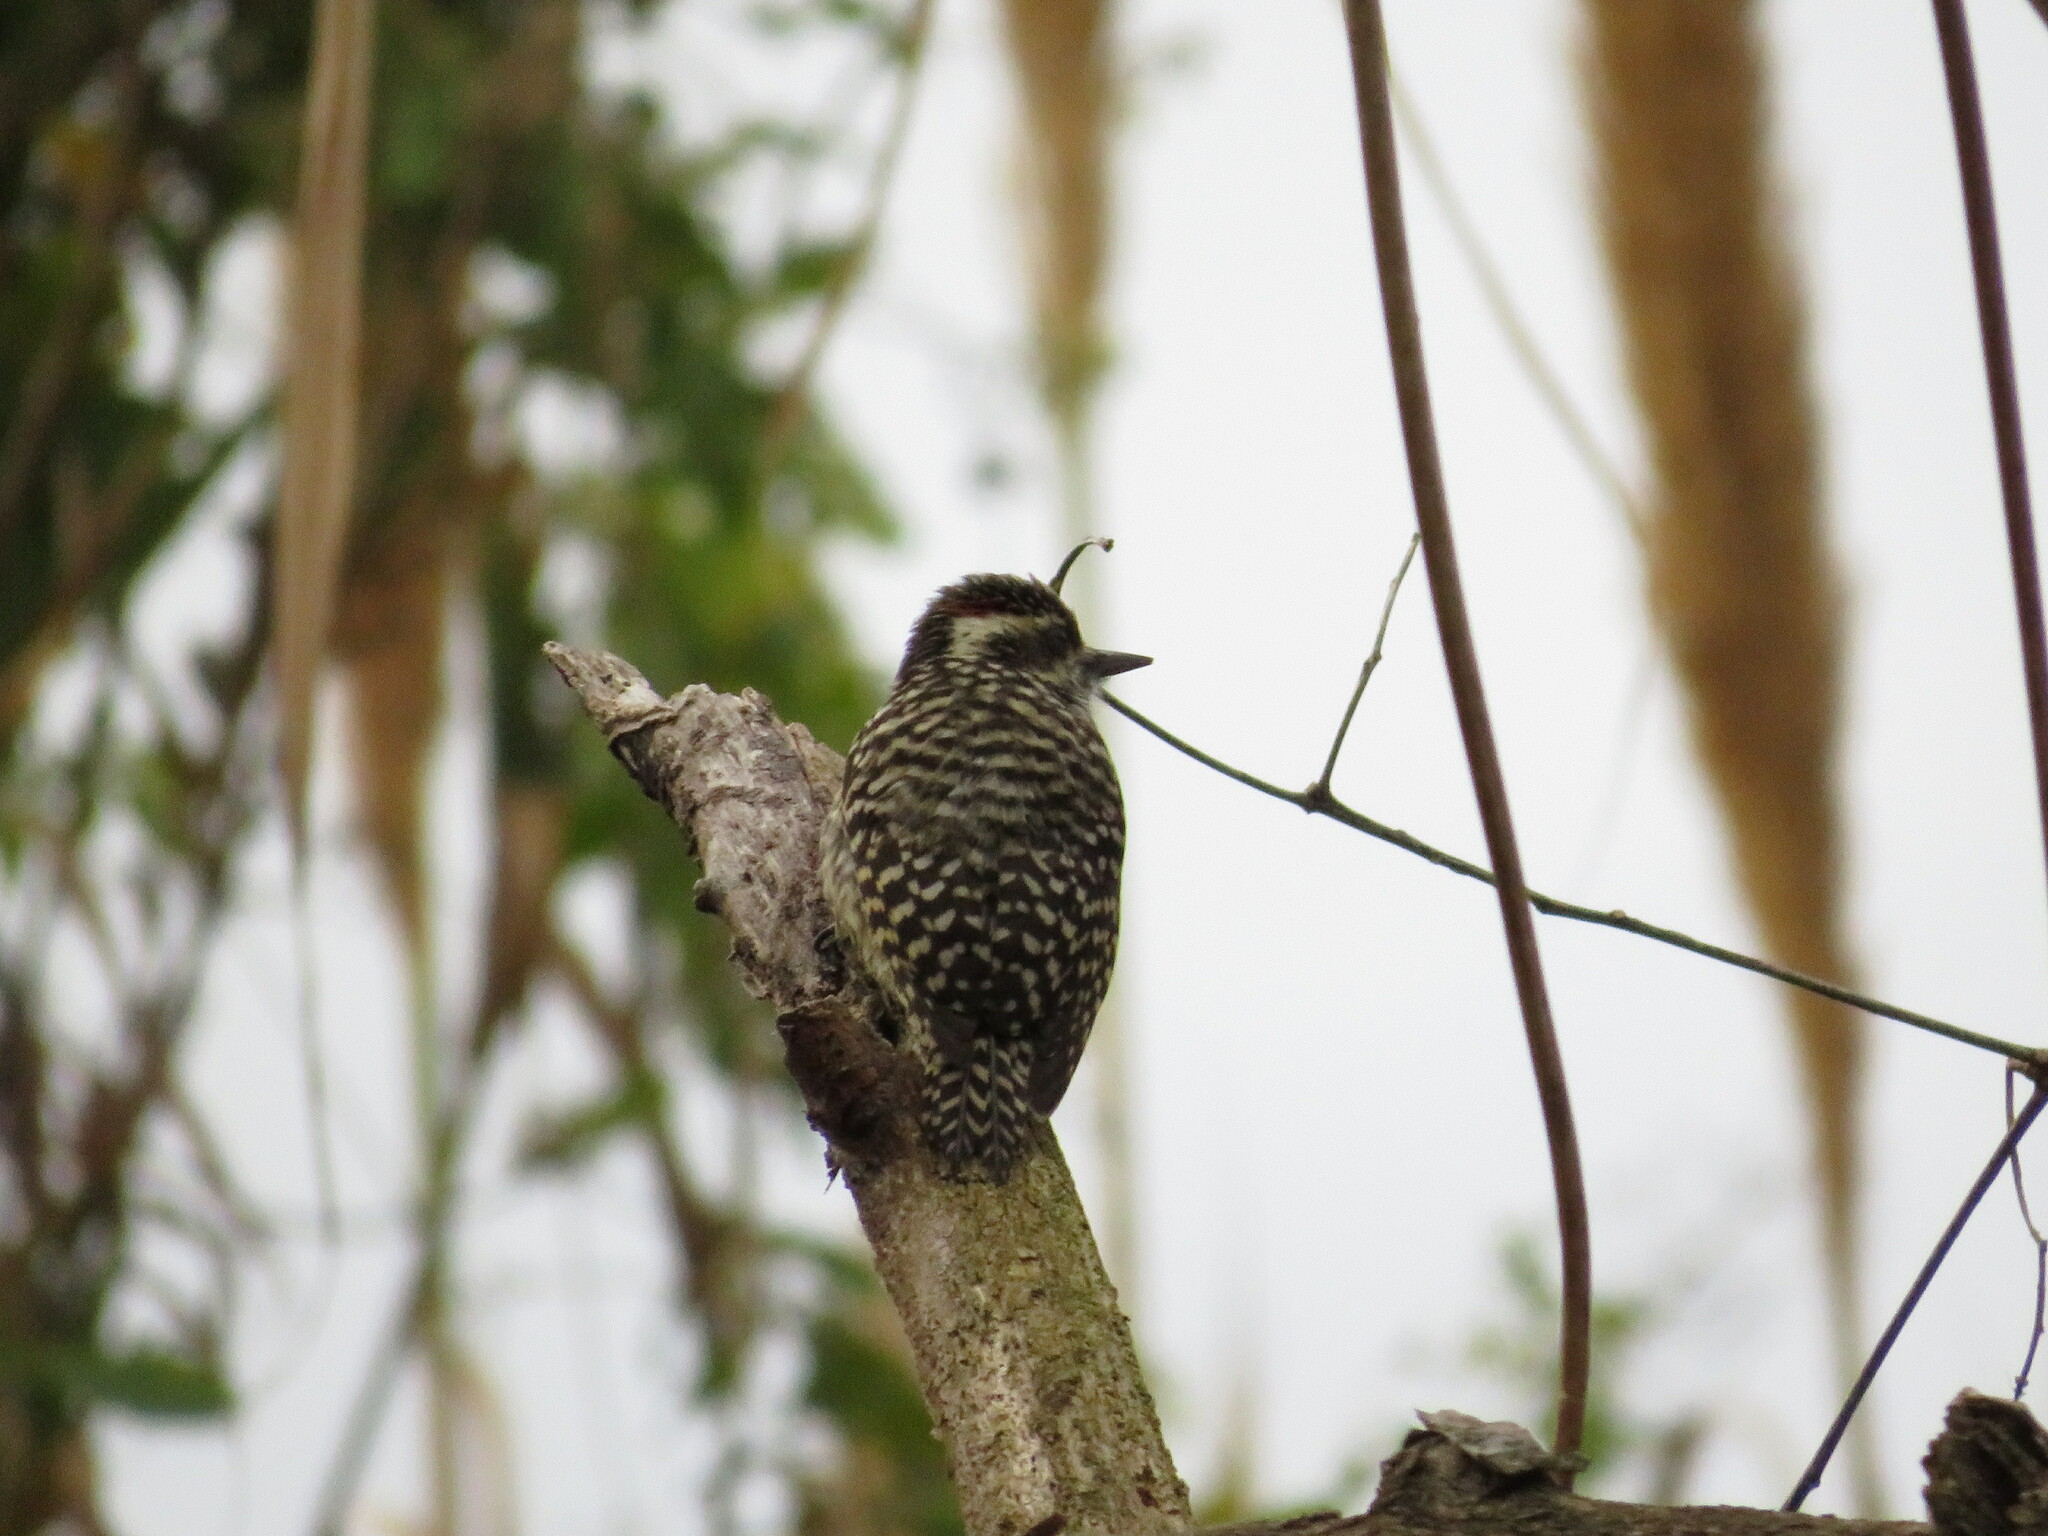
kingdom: Animalia
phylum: Chordata
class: Aves
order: Piciformes
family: Picidae
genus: Veniliornis
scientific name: Veniliornis mixtus
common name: Checkered woodpecker
